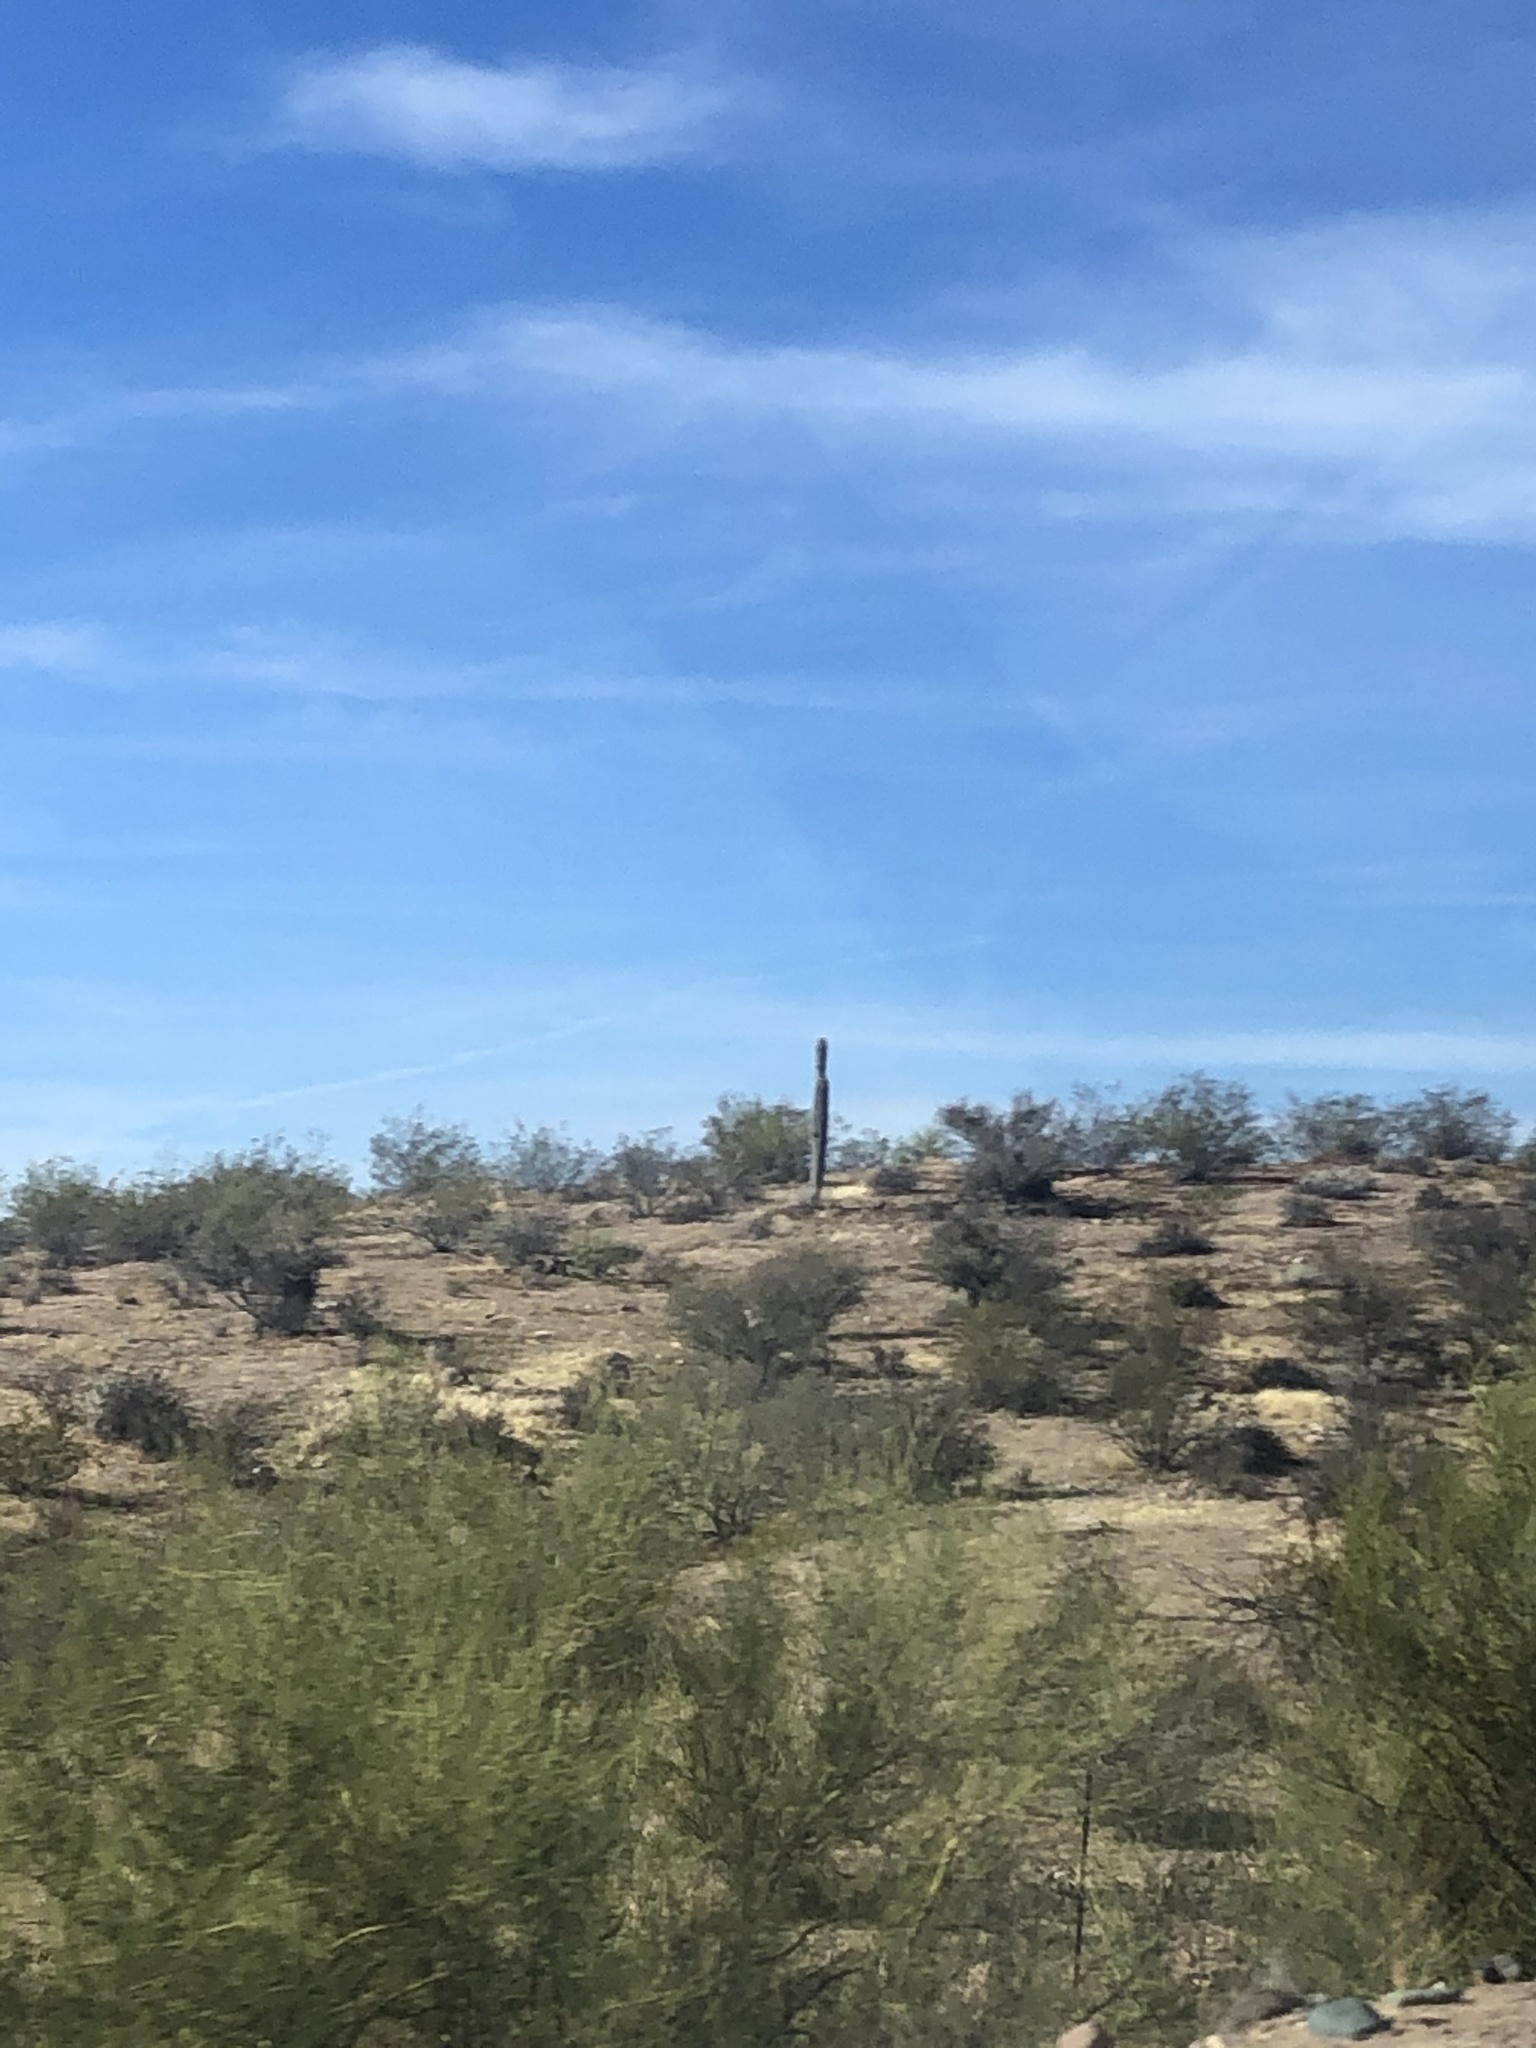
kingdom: Plantae
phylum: Tracheophyta
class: Magnoliopsida
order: Caryophyllales
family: Cactaceae
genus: Carnegiea
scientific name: Carnegiea gigantea
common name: Saguaro
